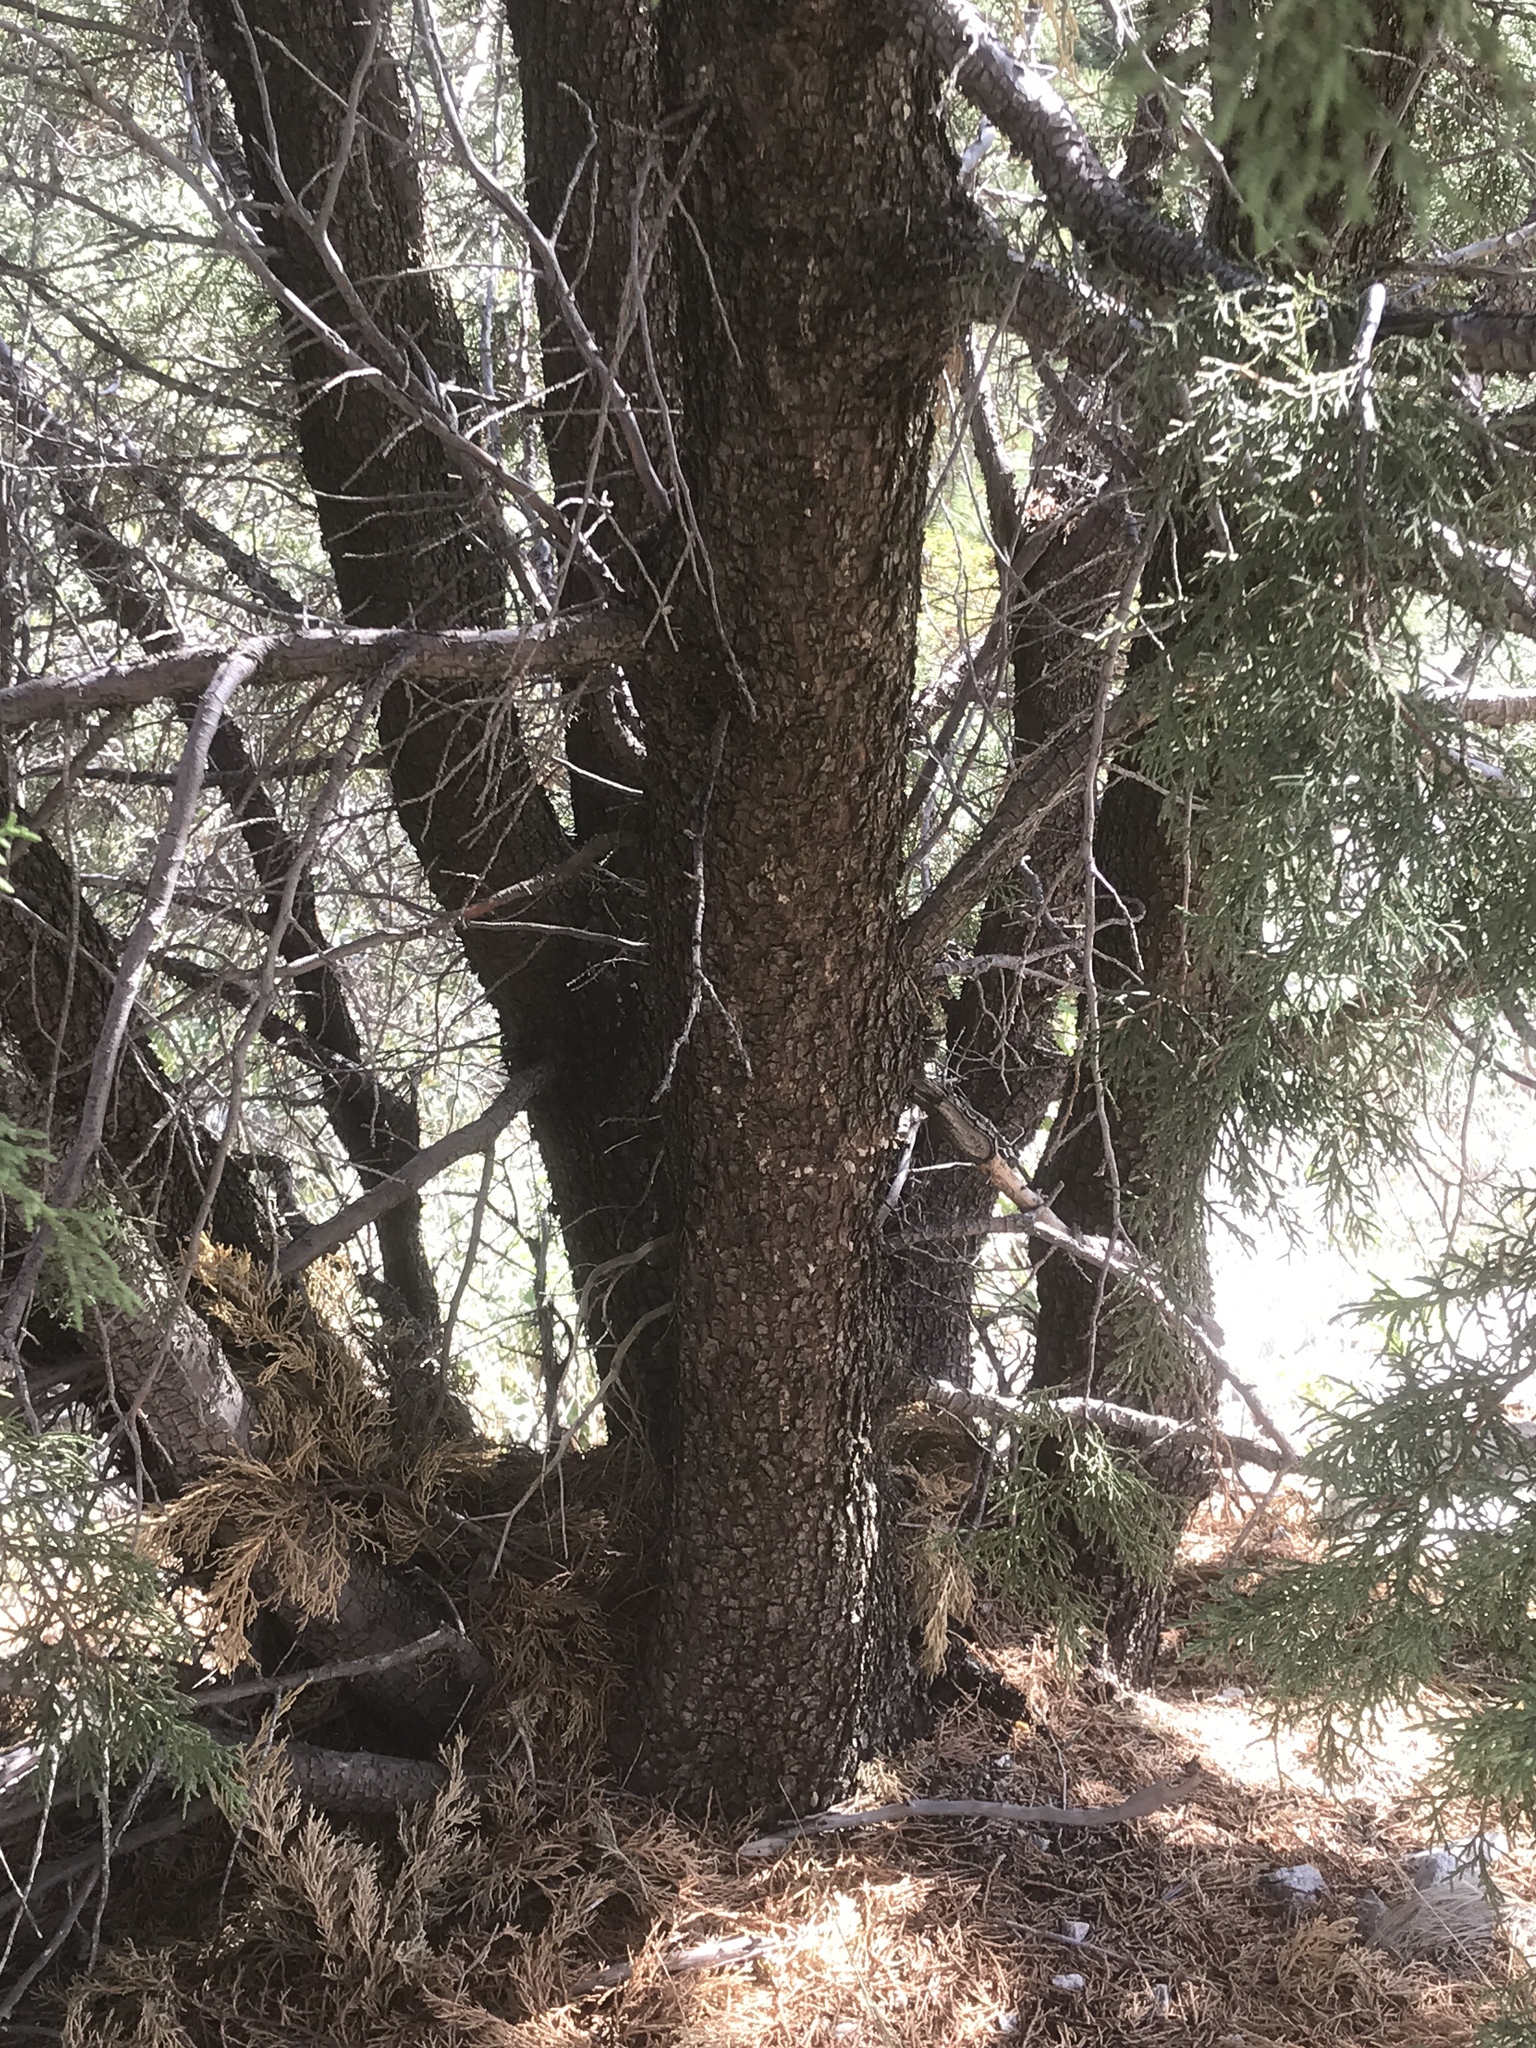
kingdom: Plantae
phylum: Tracheophyta
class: Pinopsida
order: Pinales
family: Cupressaceae
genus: Juniperus
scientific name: Juniperus deppeana
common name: Alligator juniper
